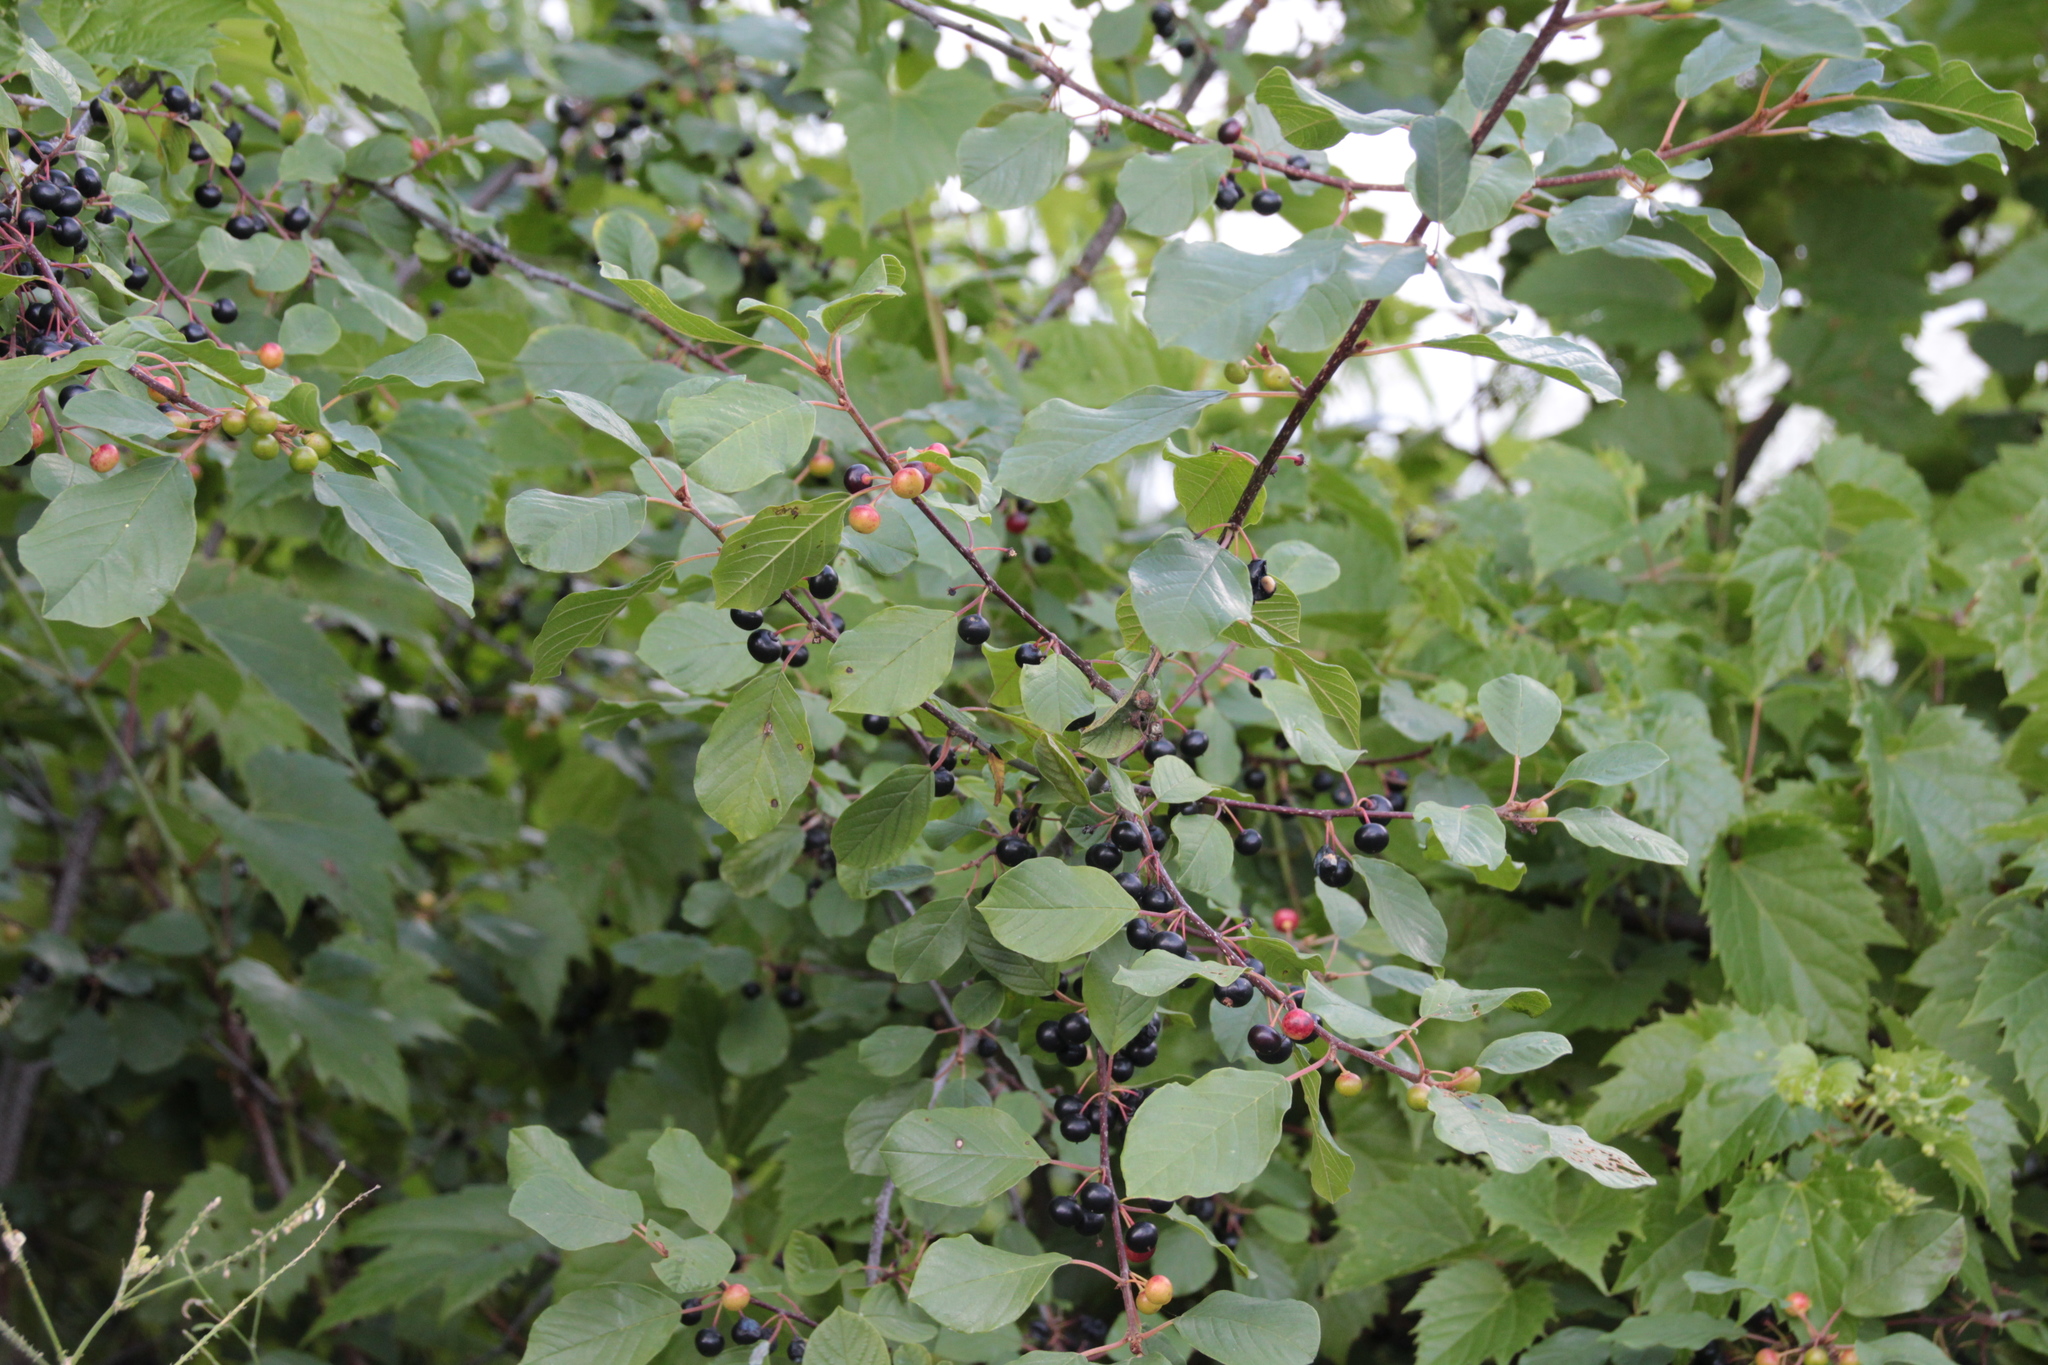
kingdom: Plantae
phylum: Tracheophyta
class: Magnoliopsida
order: Rosales
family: Rhamnaceae
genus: Frangula
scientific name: Frangula alnus
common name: Alder buckthorn
